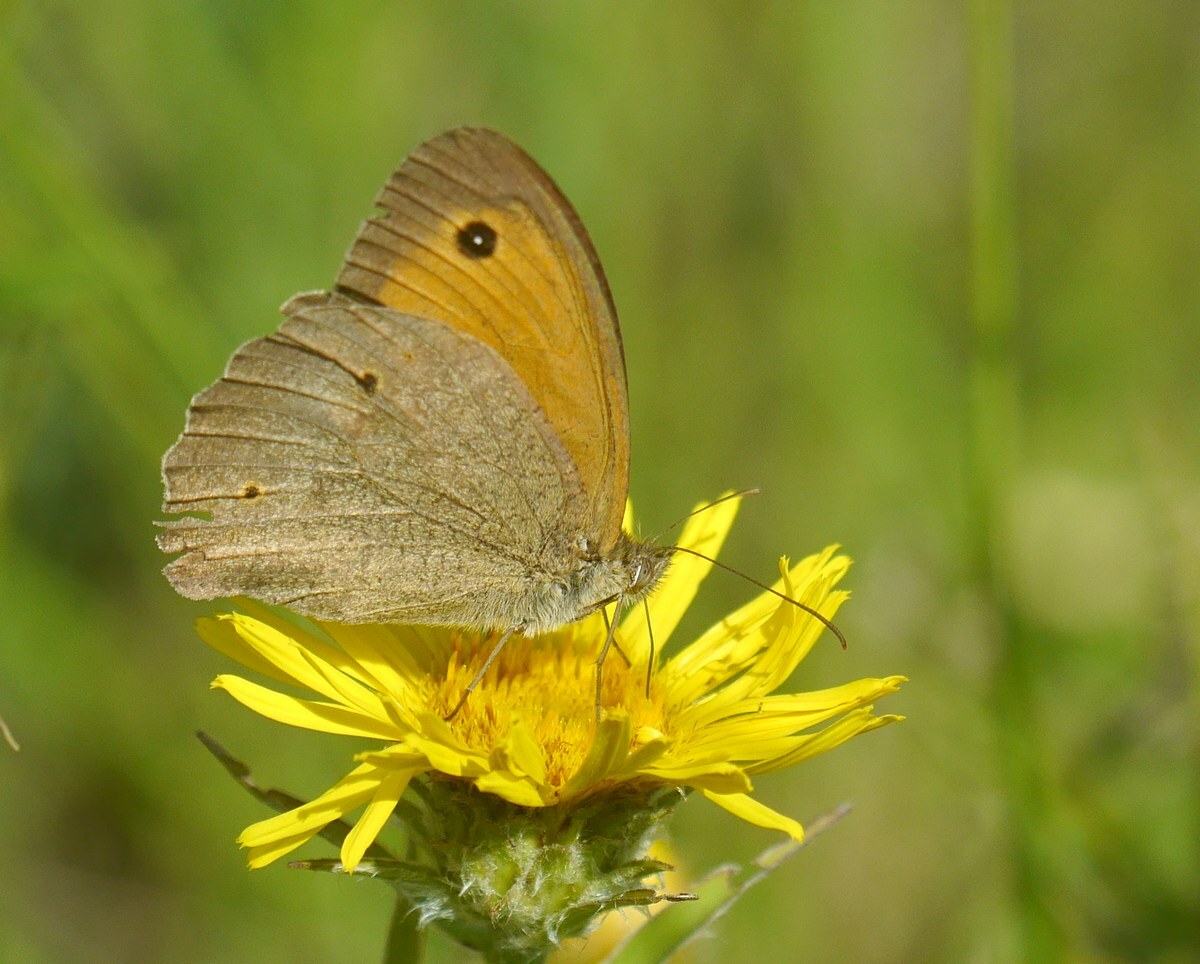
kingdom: Animalia
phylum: Arthropoda
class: Insecta
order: Lepidoptera
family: Nymphalidae
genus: Maniola
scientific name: Maniola jurtina
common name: Meadow brown
